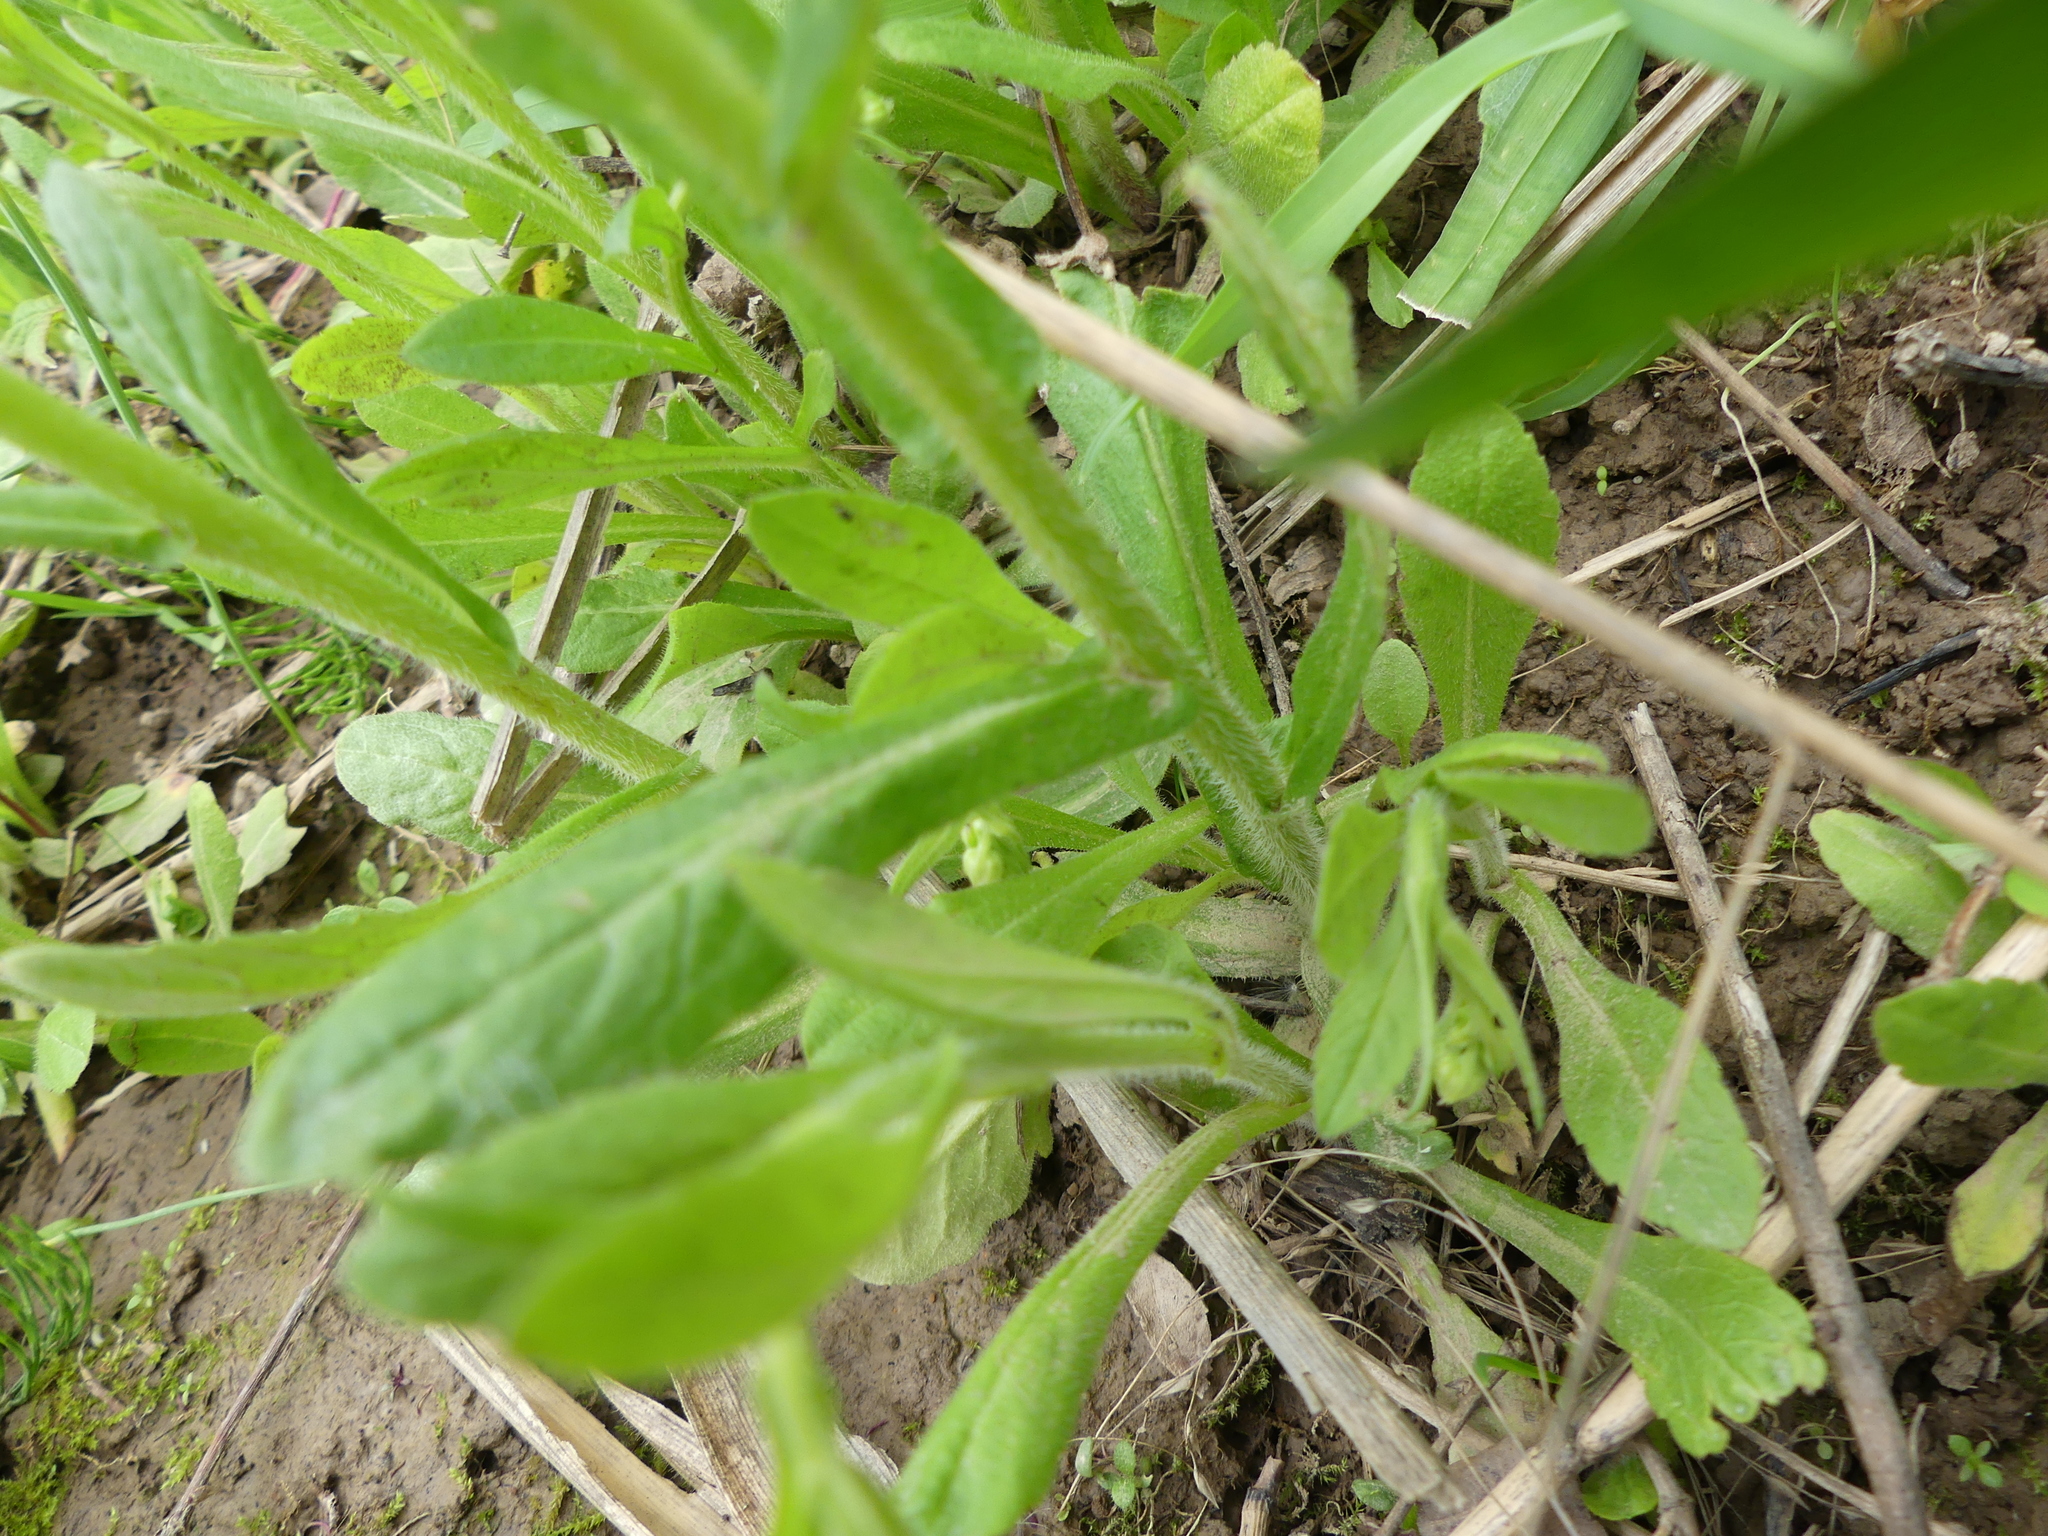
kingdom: Plantae
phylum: Tracheophyta
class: Magnoliopsida
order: Asterales
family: Asteraceae
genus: Erigeron
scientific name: Erigeron philadelphicus
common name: Robin's-plantain
